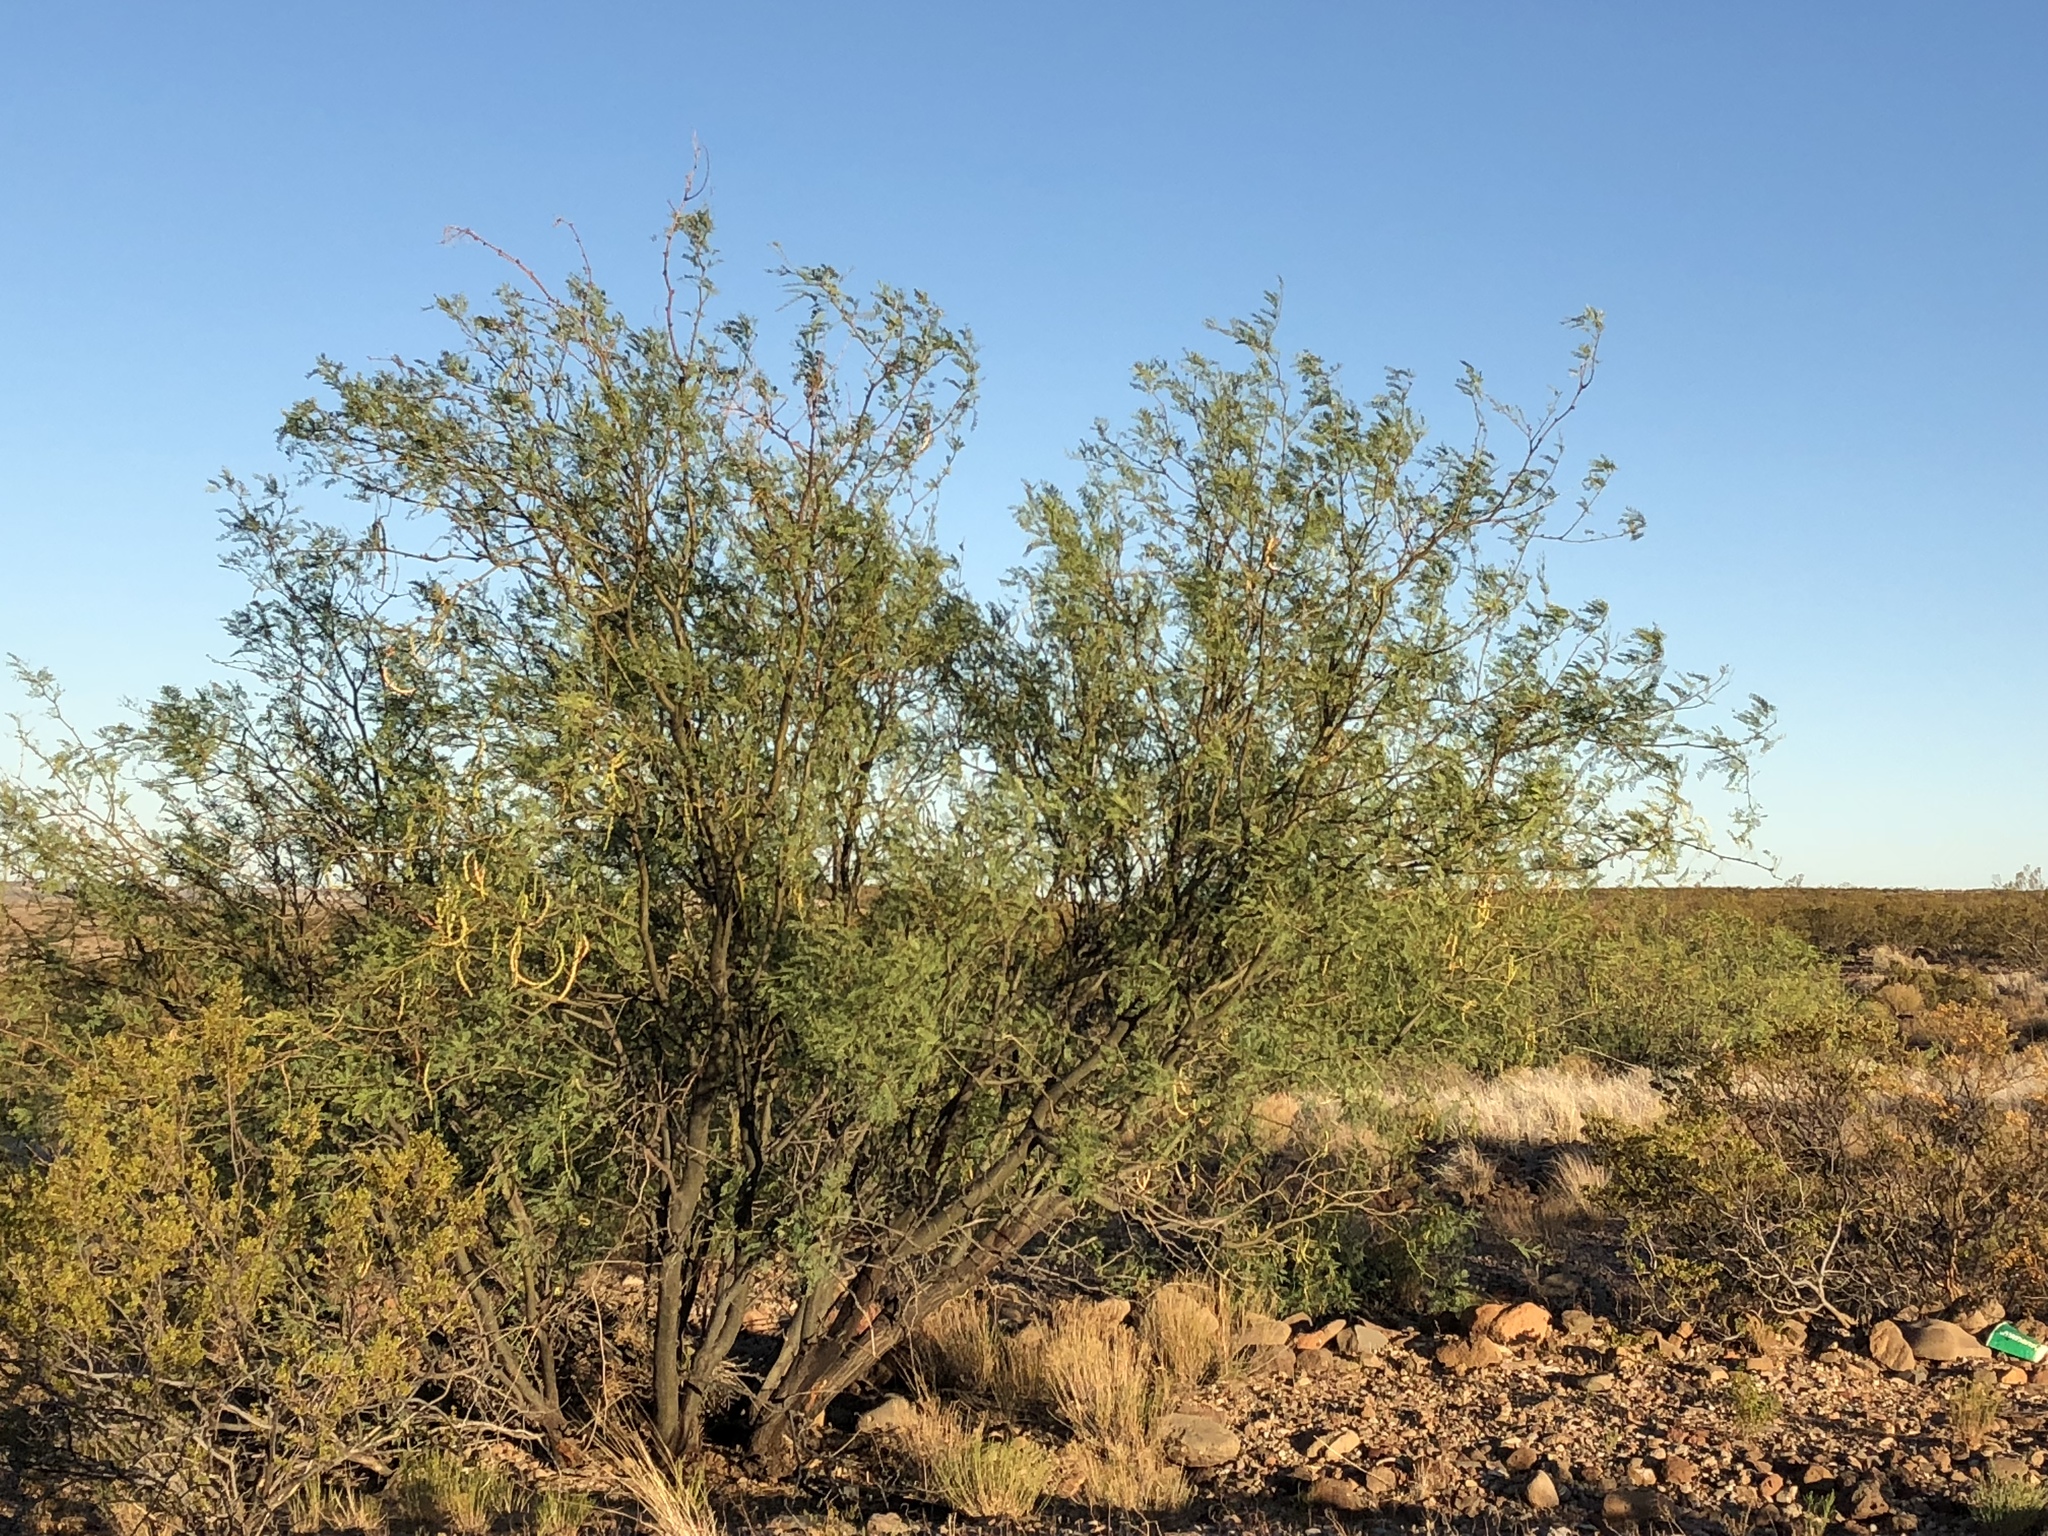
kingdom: Plantae
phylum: Tracheophyta
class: Magnoliopsida
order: Fabales
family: Fabaceae
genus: Prosopis
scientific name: Prosopis glandulosa
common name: Honey mesquite
